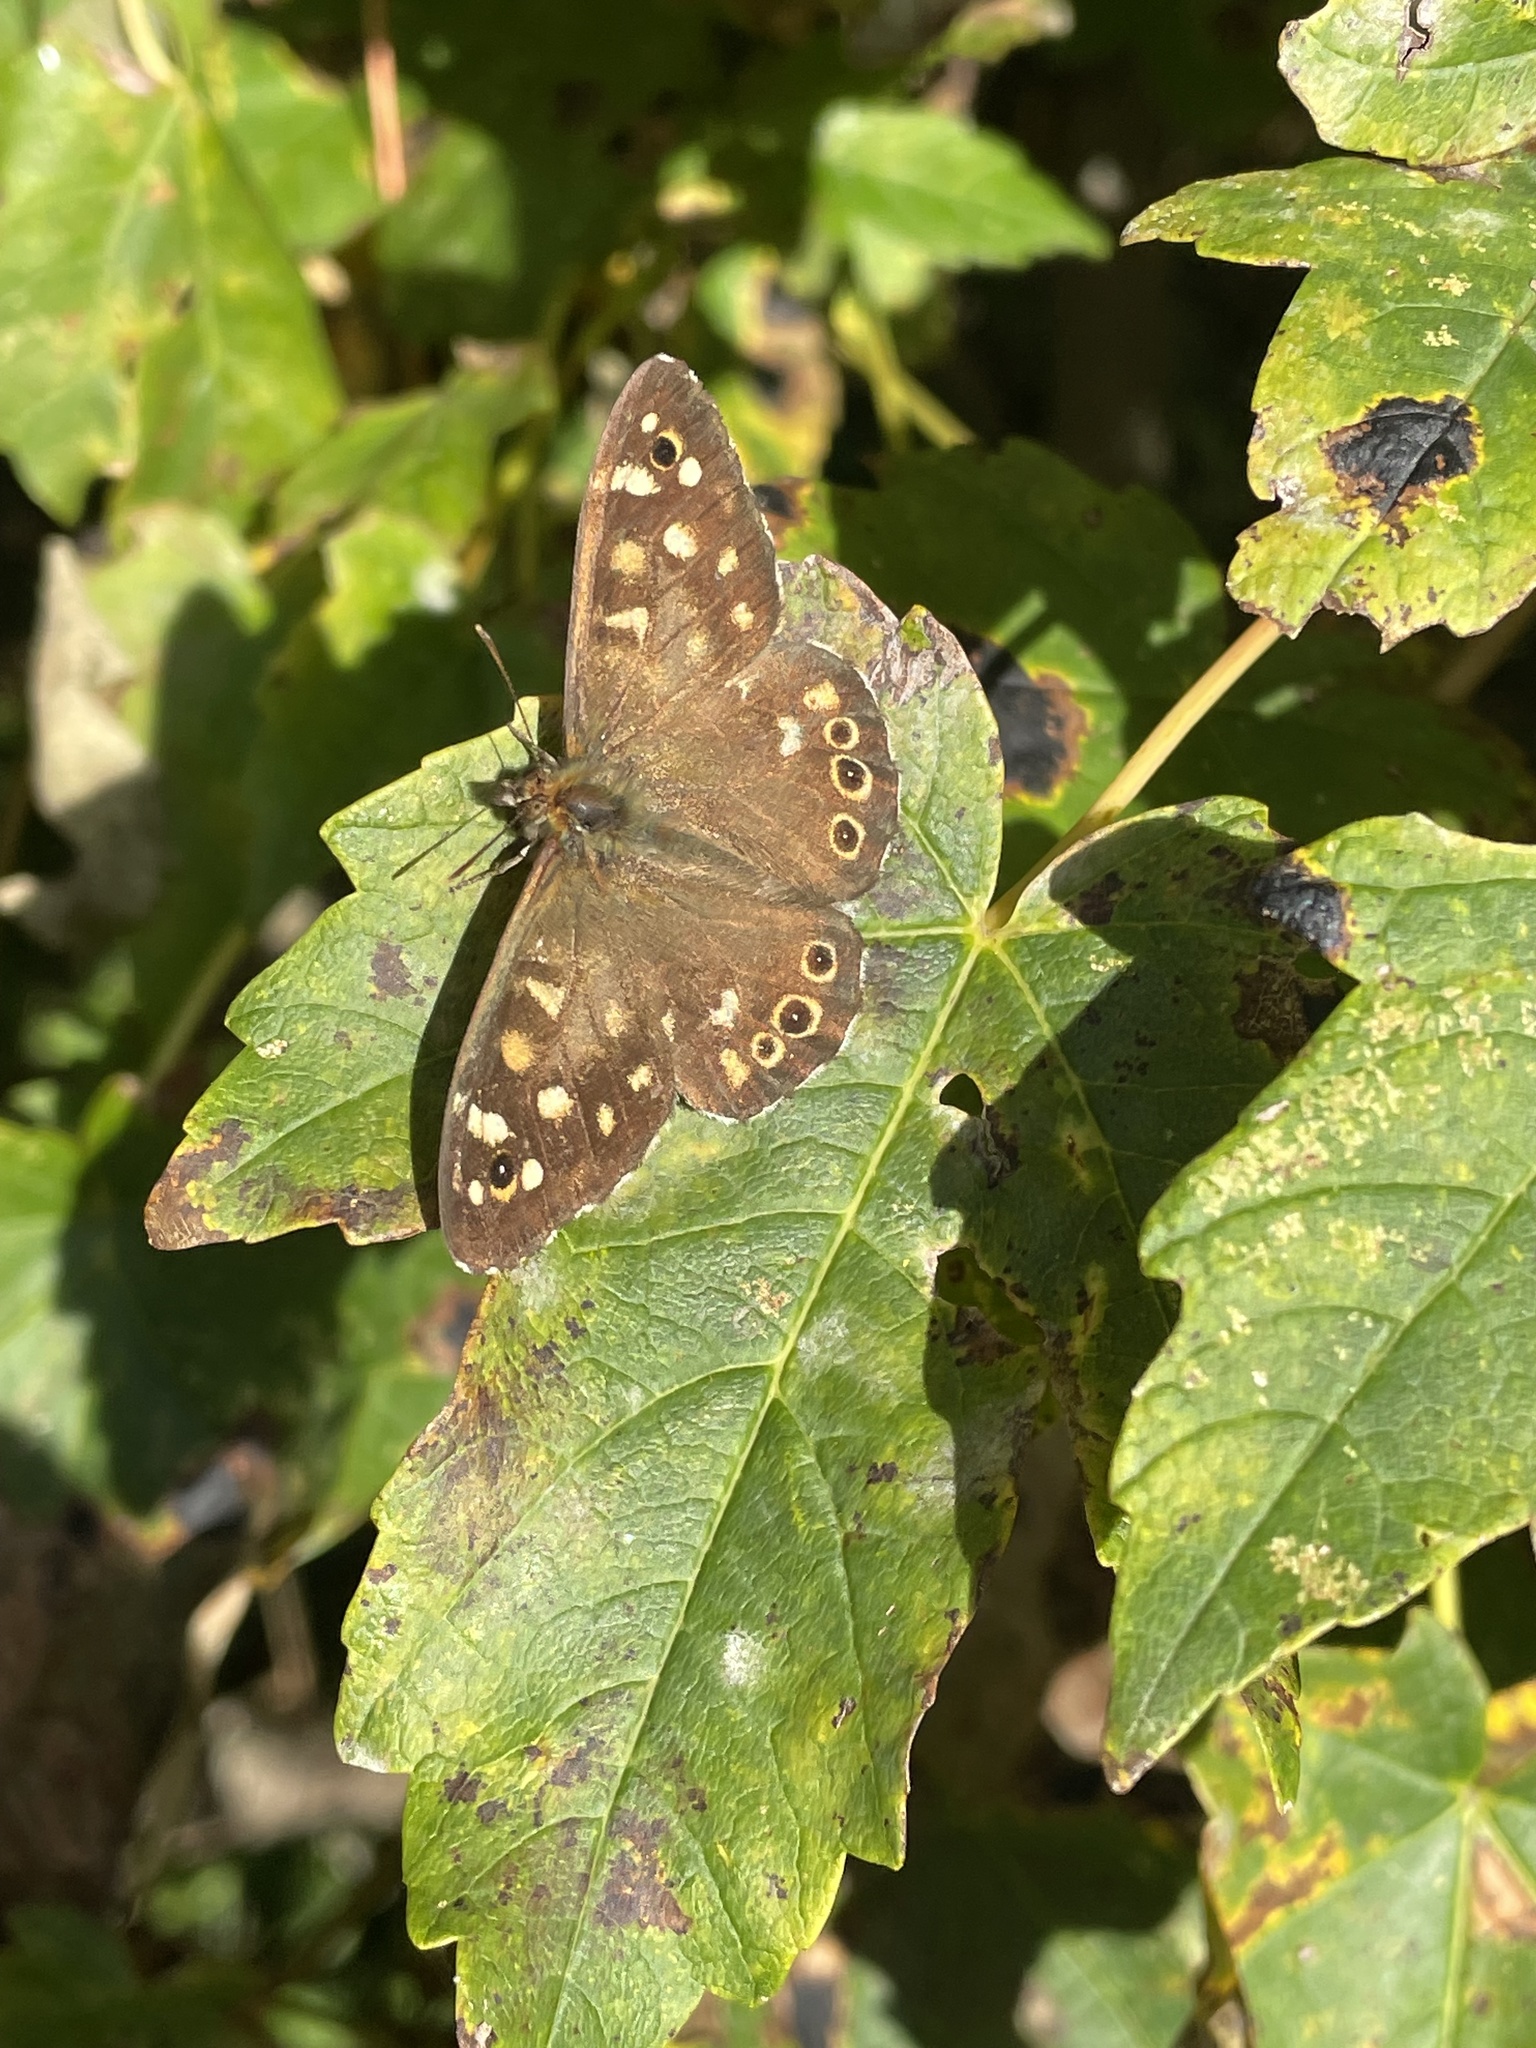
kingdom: Animalia
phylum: Arthropoda
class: Insecta
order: Lepidoptera
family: Nymphalidae
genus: Pararge
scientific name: Pararge aegeria
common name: Speckled wood
